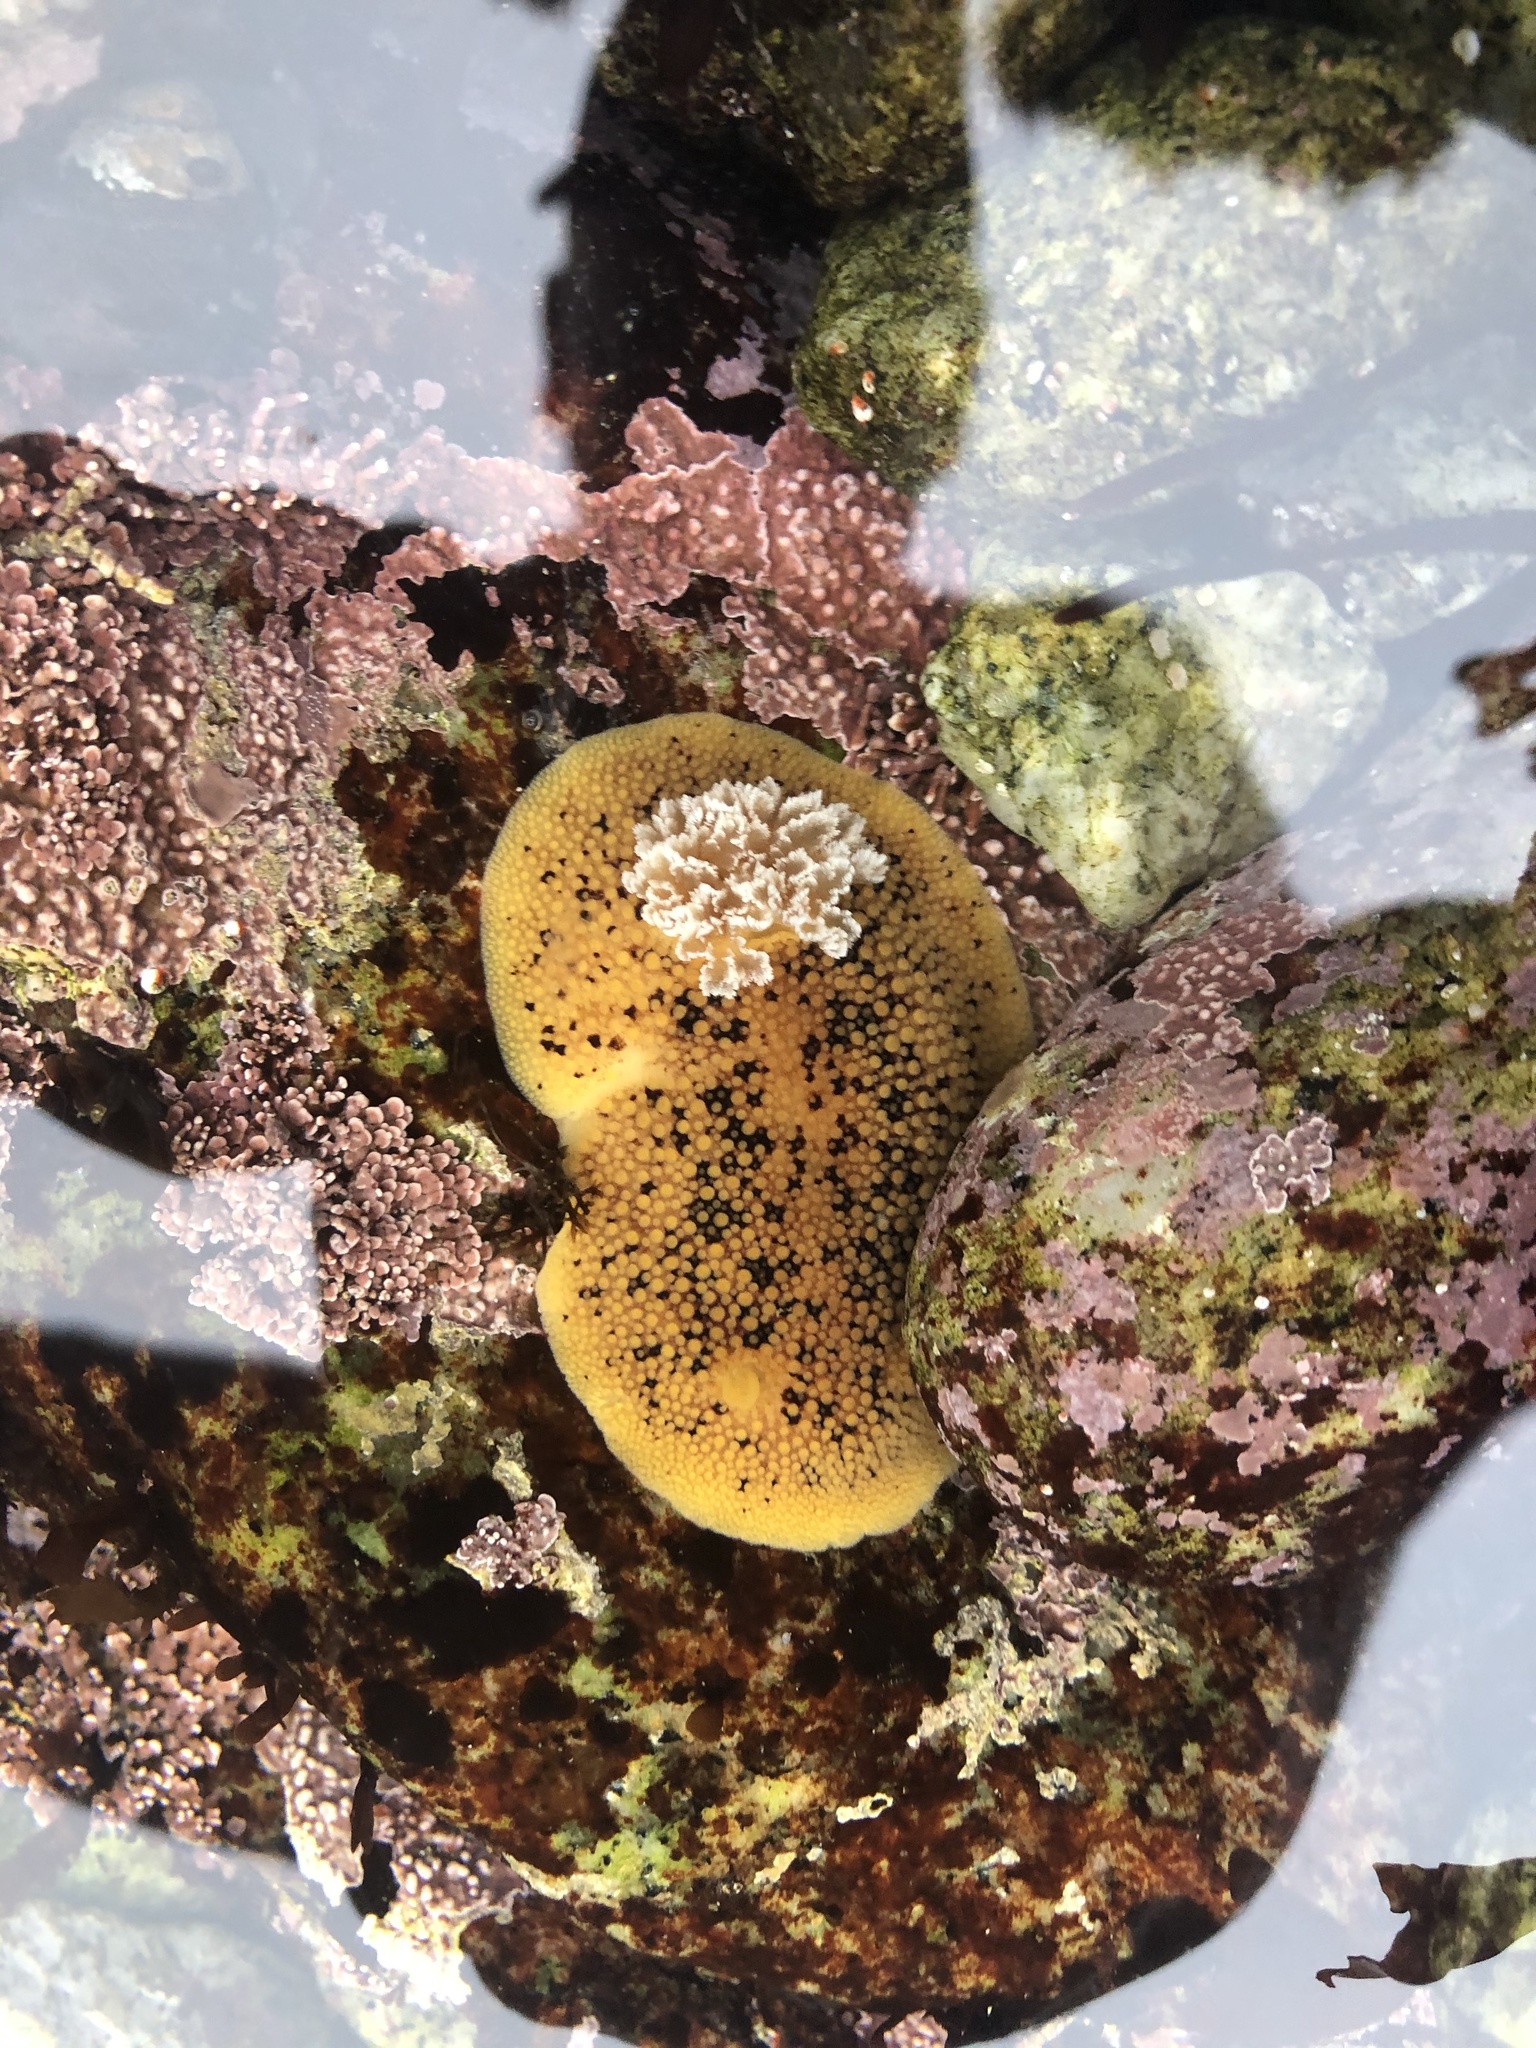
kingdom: Animalia
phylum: Mollusca
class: Gastropoda
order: Nudibranchia
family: Discodorididae
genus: Peltodoris
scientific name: Peltodoris nobilis
